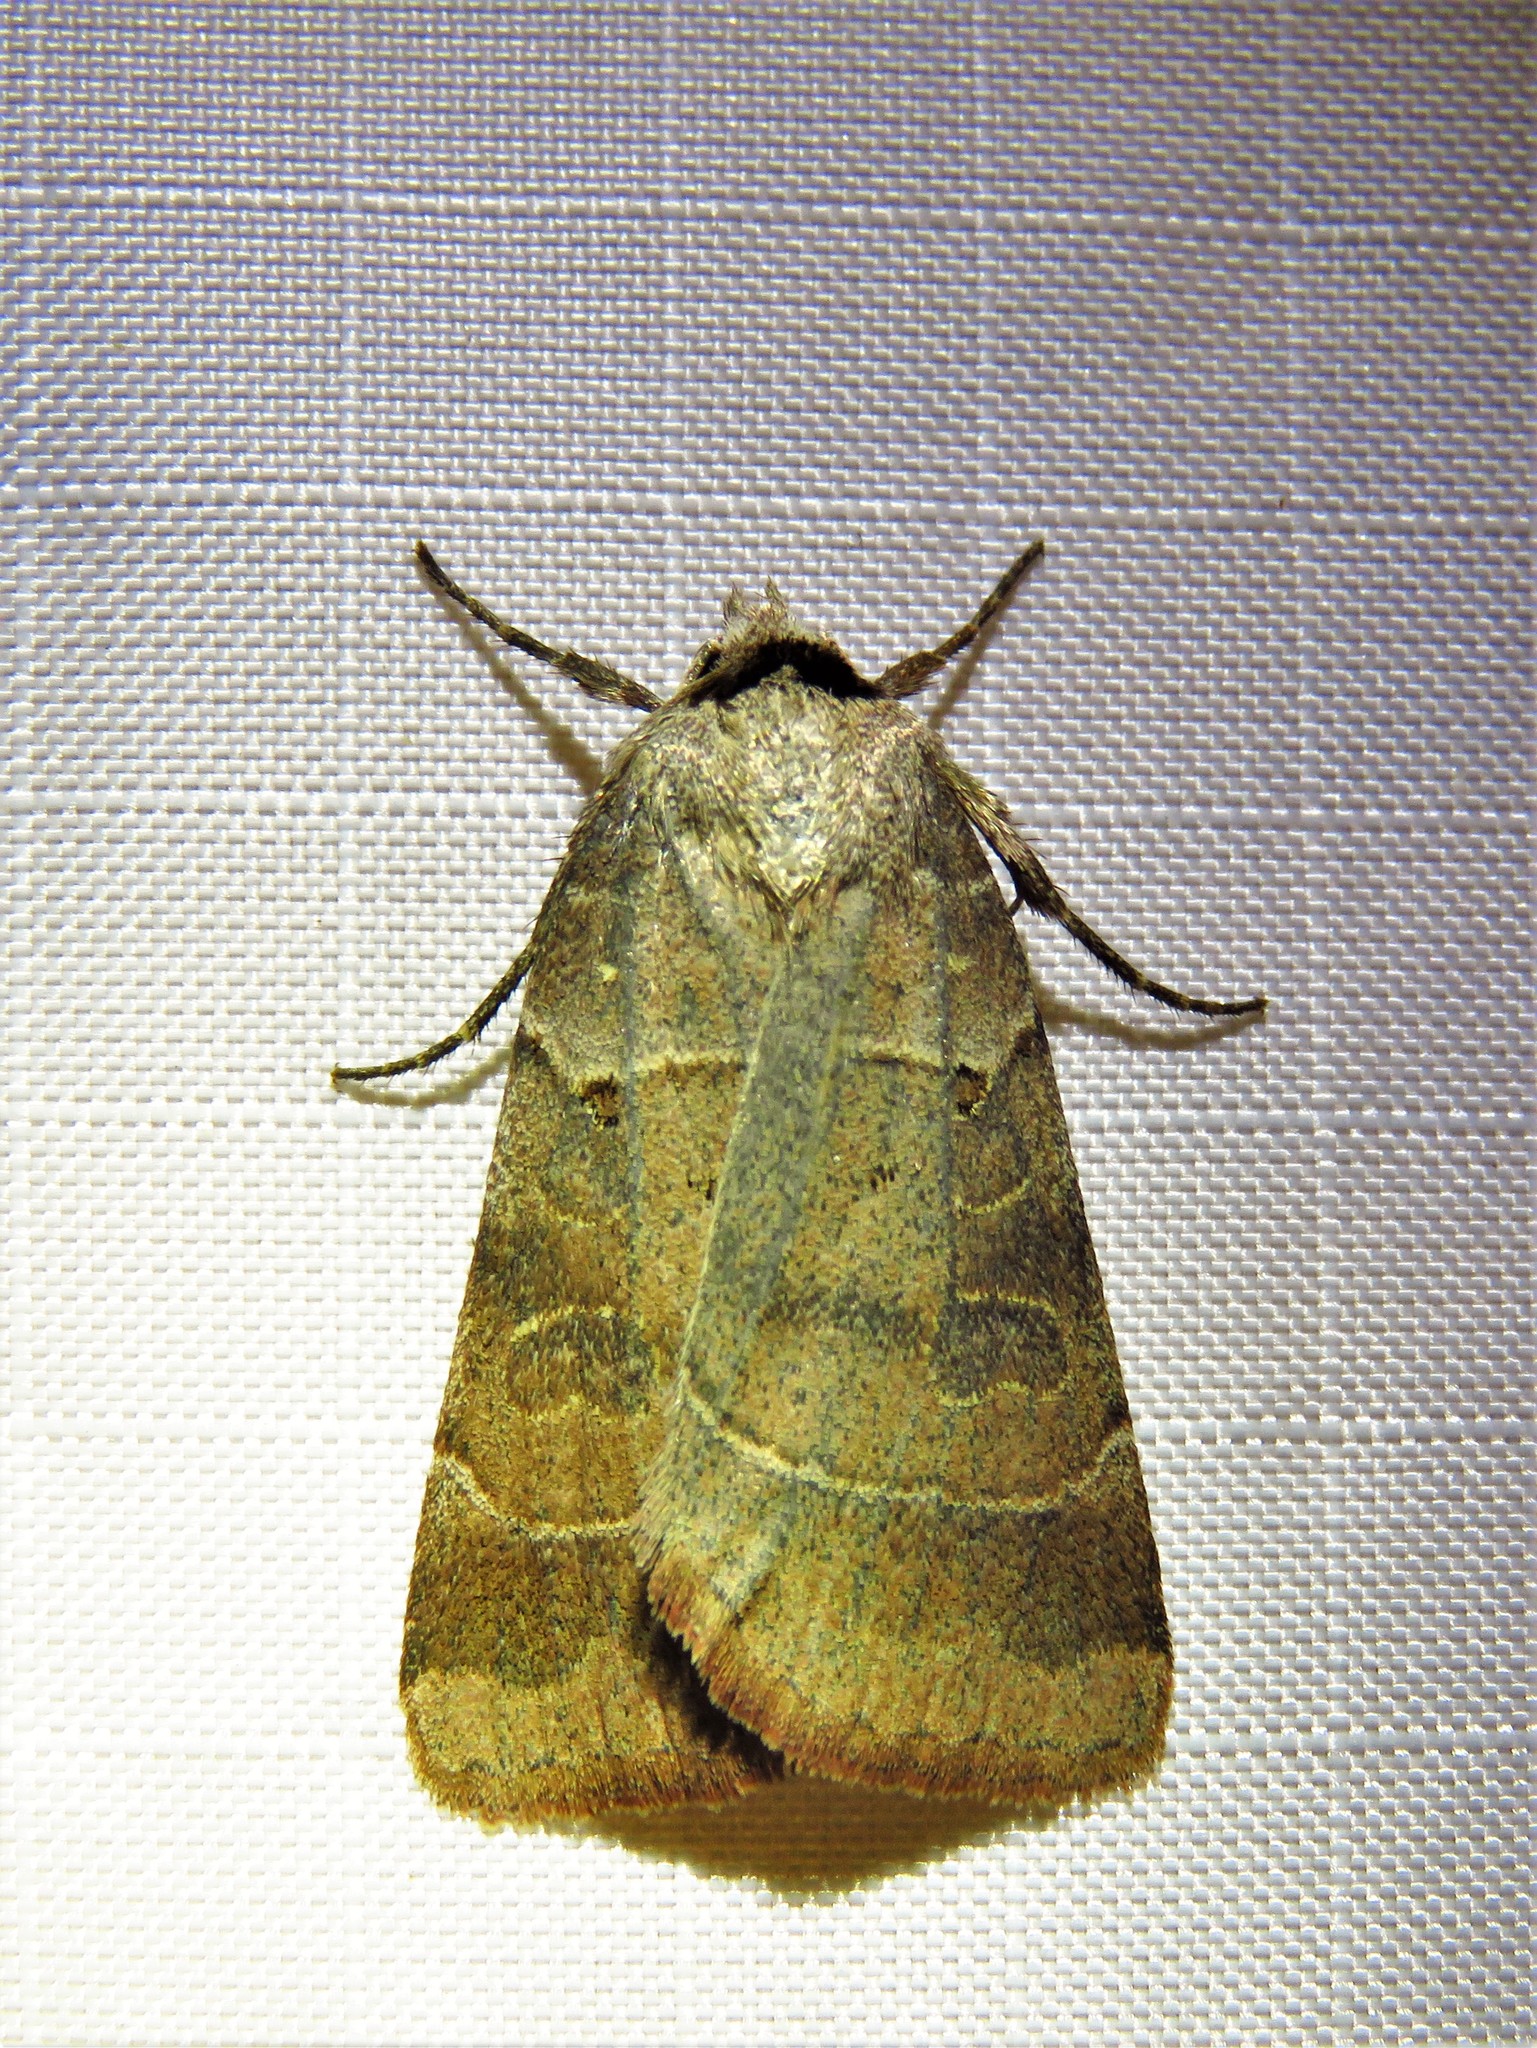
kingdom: Animalia
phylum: Arthropoda
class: Insecta
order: Lepidoptera
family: Noctuidae
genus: Agnorisma
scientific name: Agnorisma badinodis
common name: Pale-banded dart
